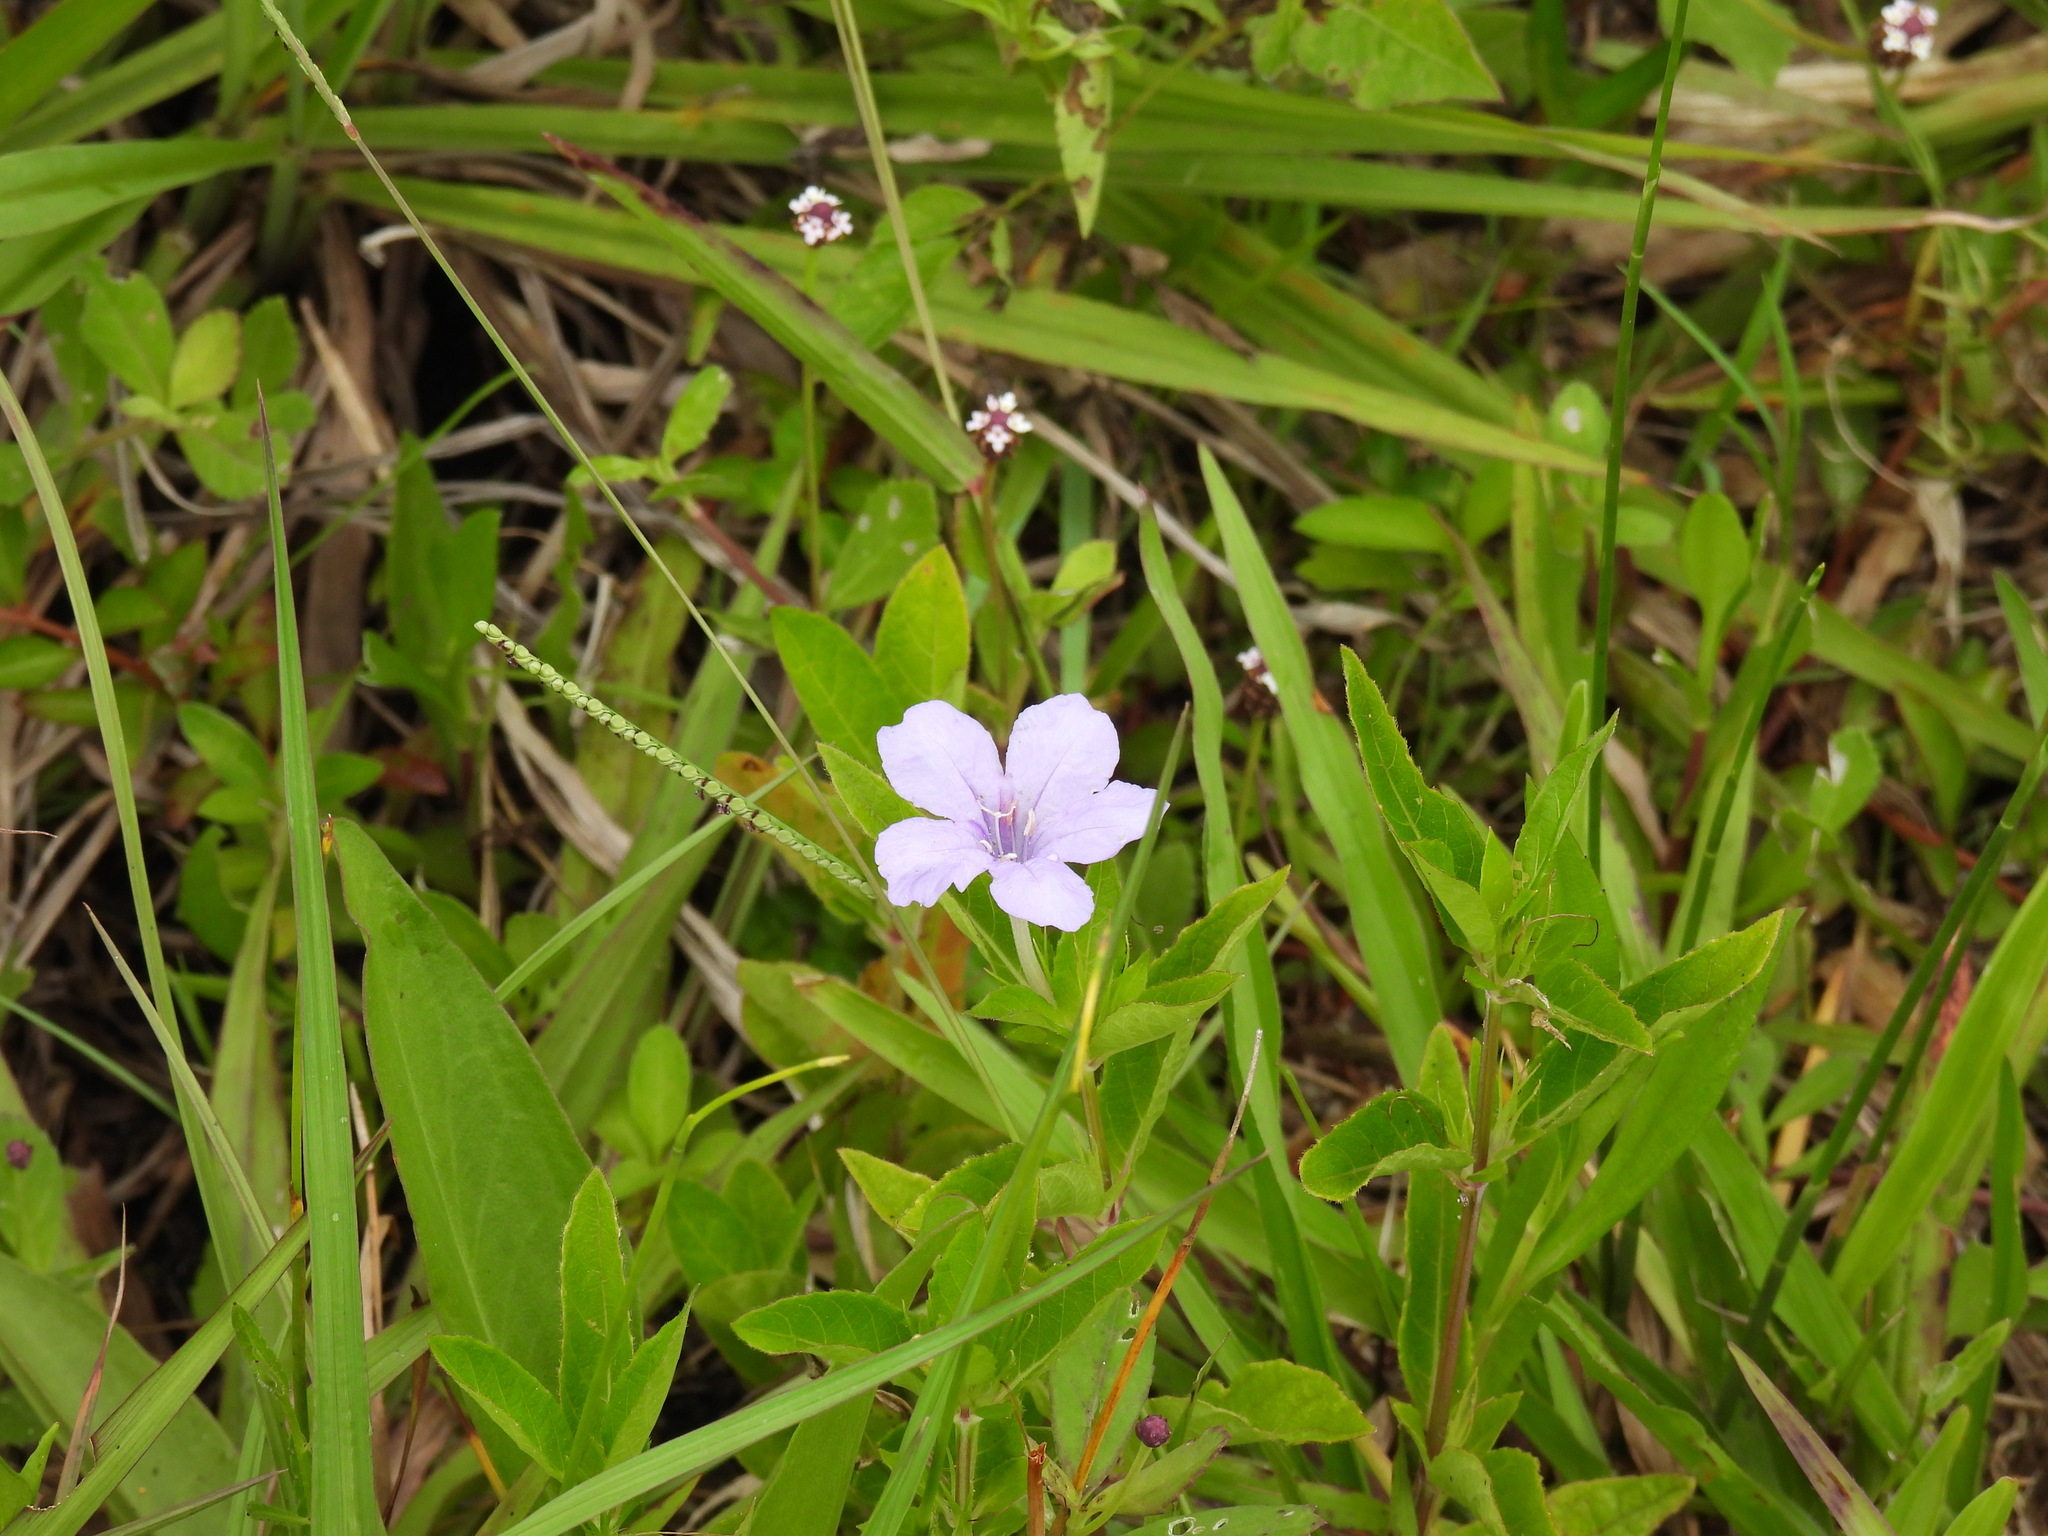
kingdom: Plantae
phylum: Tracheophyta
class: Magnoliopsida
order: Lamiales
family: Acanthaceae
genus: Ruellia
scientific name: Ruellia caroliniensis
